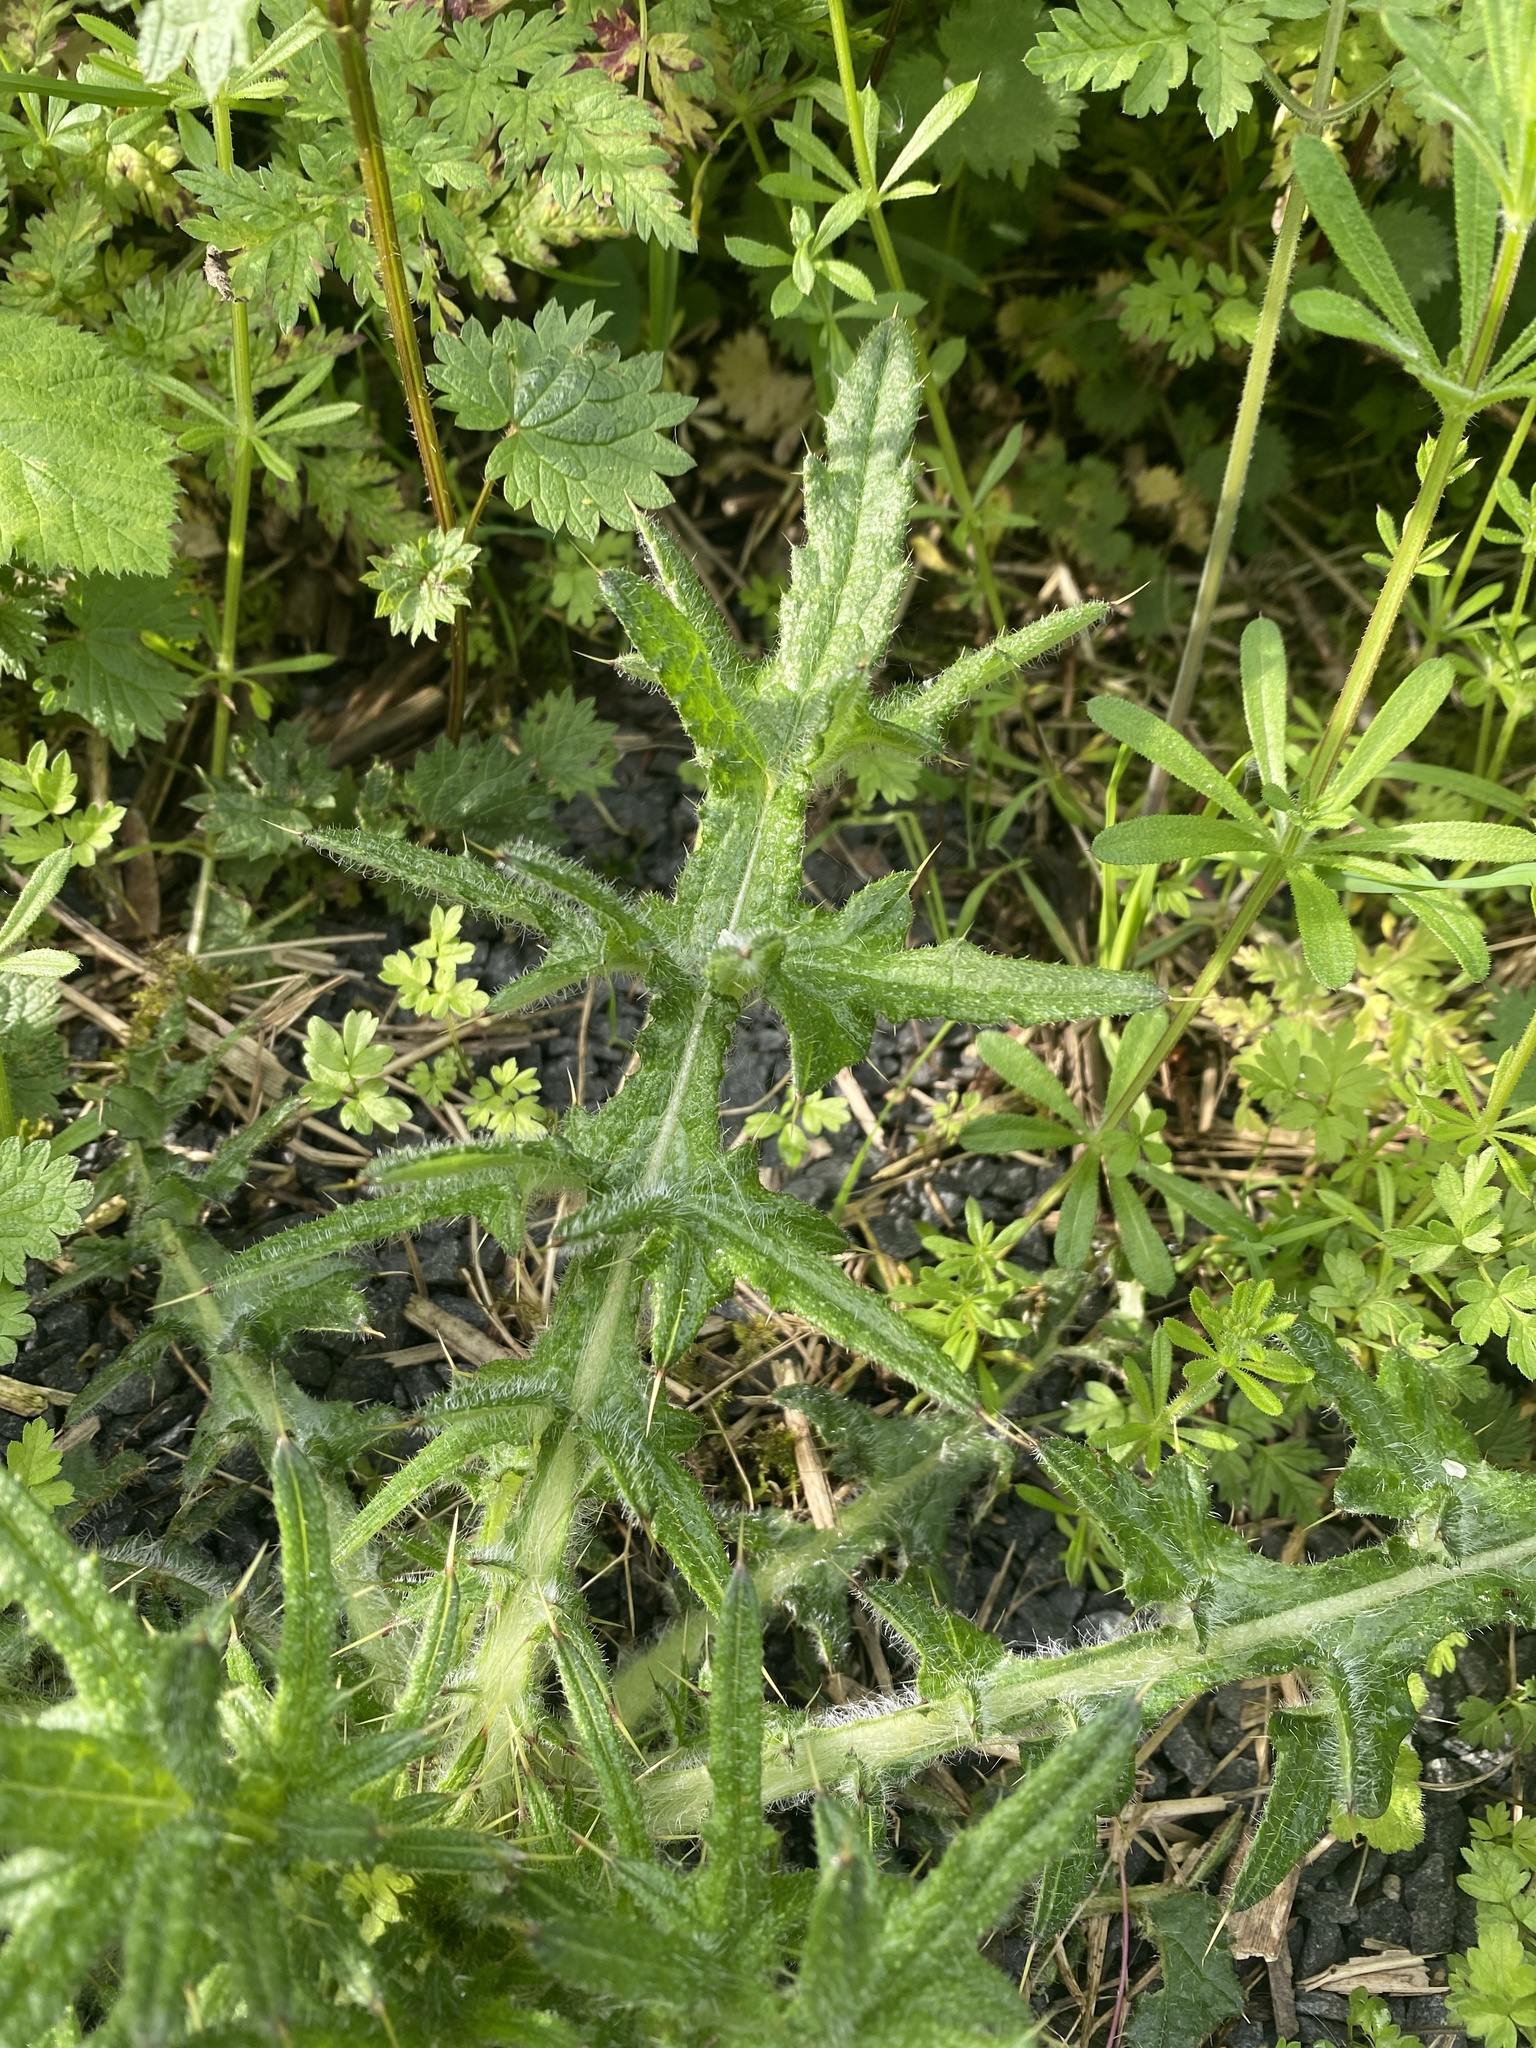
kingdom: Plantae
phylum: Tracheophyta
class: Magnoliopsida
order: Asterales
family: Asteraceae
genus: Cirsium
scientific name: Cirsium vulgare
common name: Bull thistle
